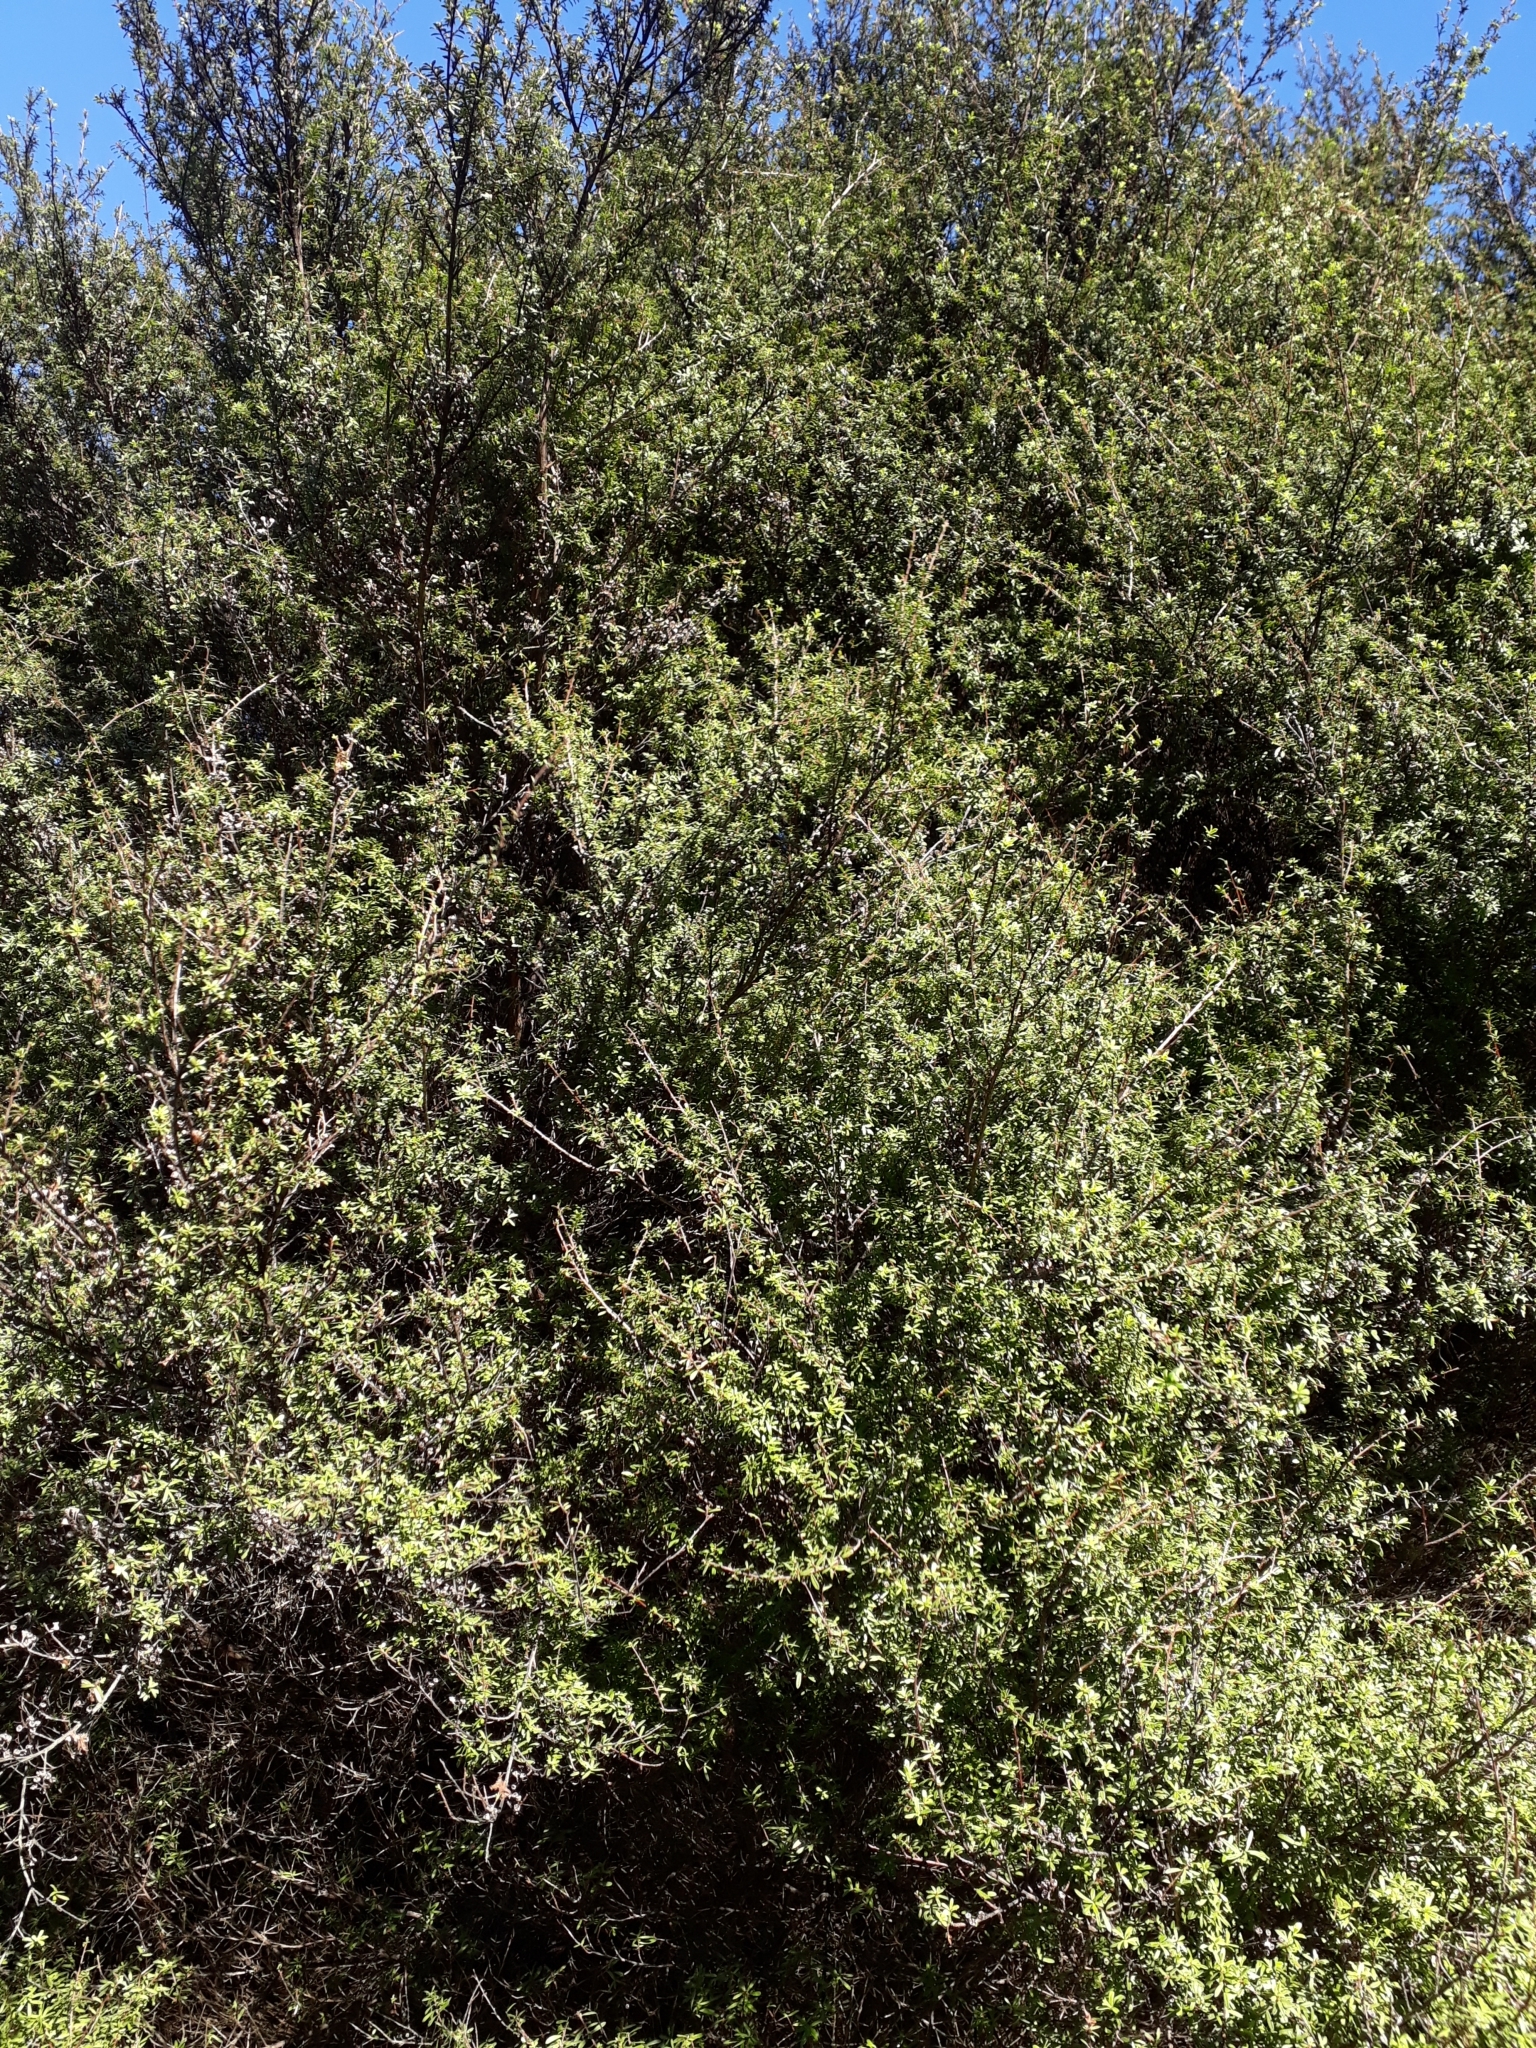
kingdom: Plantae
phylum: Tracheophyta
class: Magnoliopsida
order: Myrtales
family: Myrtaceae
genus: Kunzea
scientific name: Kunzea robusta
